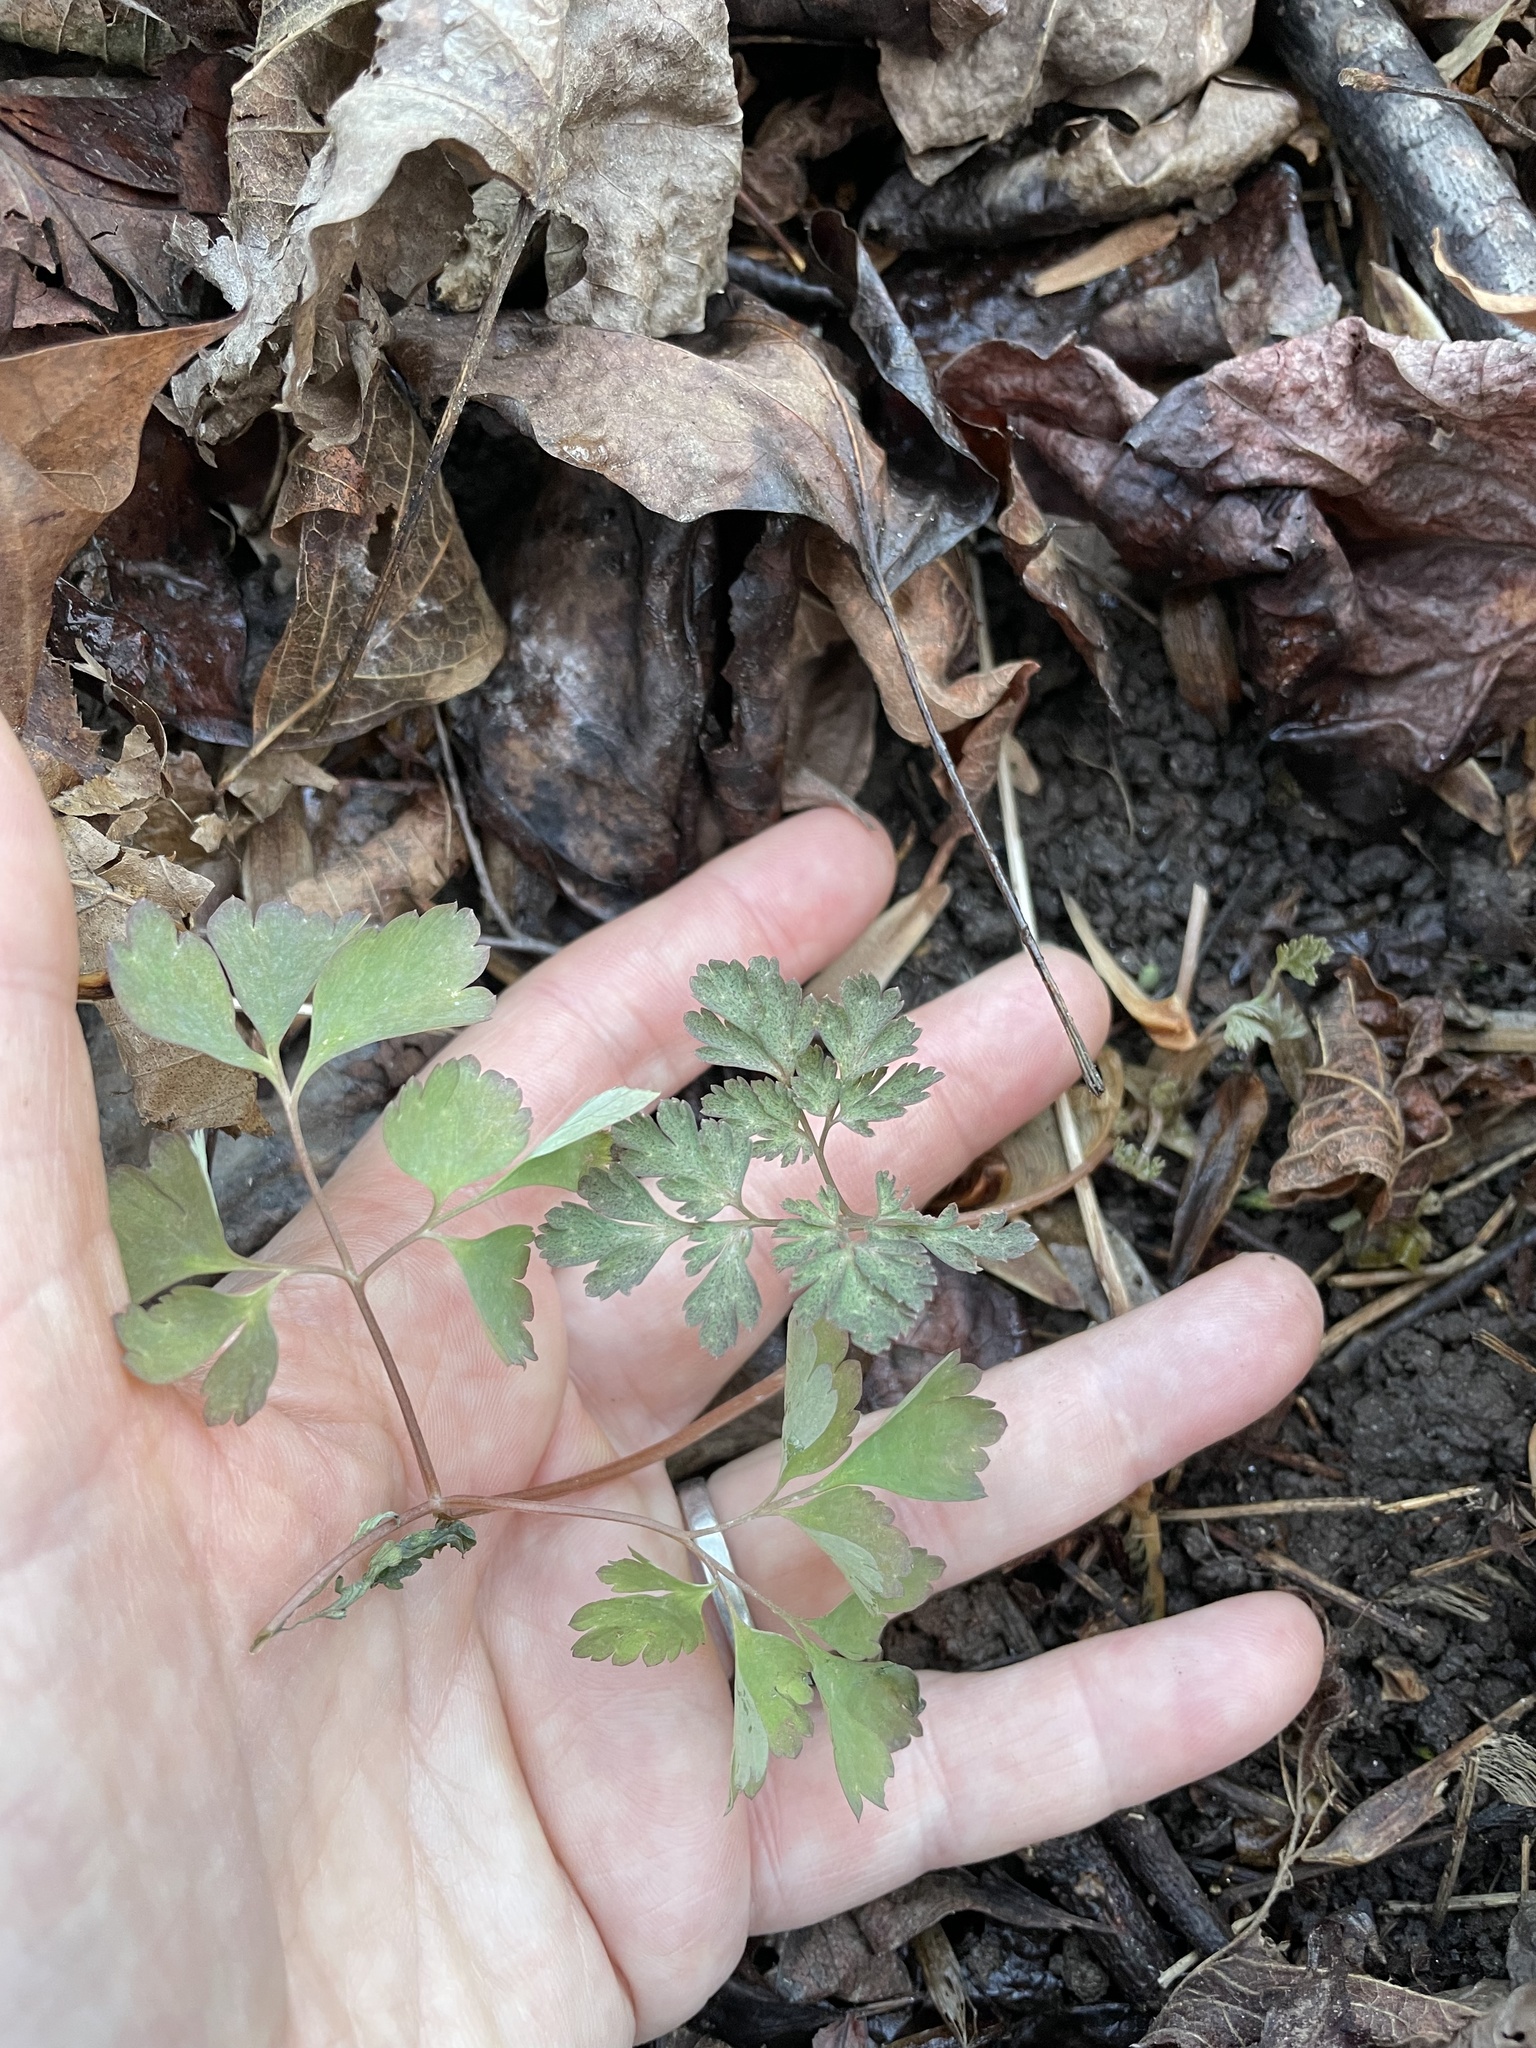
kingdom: Plantae
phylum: Tracheophyta
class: Magnoliopsida
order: Ranunculales
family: Papaveraceae
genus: Corydalis
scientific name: Corydalis incisa
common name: Incised fumewort
